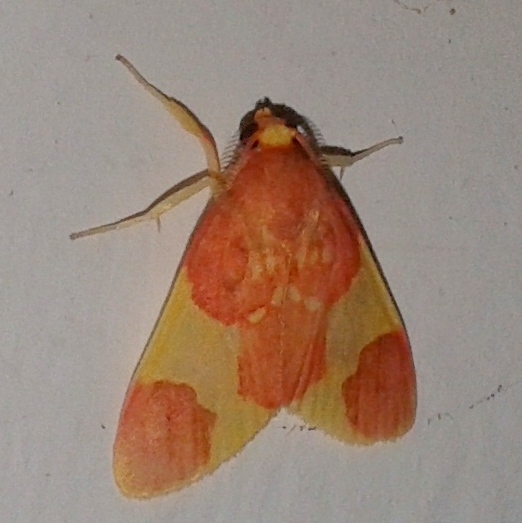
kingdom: Animalia
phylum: Arthropoda
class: Insecta
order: Lepidoptera
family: Erebidae
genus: Trichromia
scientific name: Trichromia
